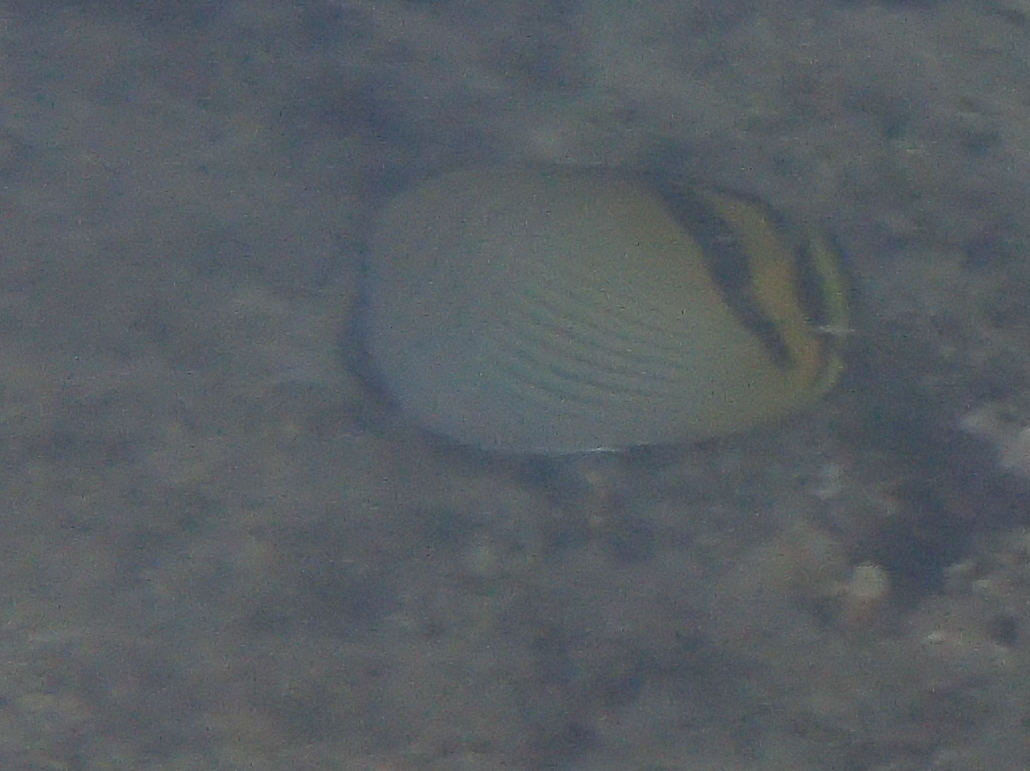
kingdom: Animalia
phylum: Chordata
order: Perciformes
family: Chaetodontidae
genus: Chaetodon
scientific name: Chaetodon vagabundus
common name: Vagabond butterflyfish
